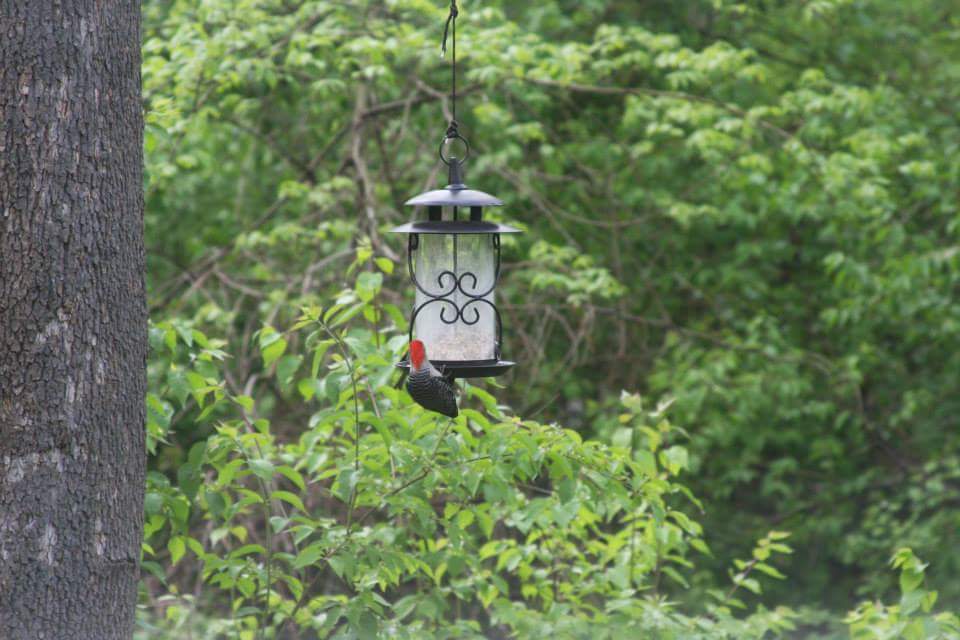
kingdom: Animalia
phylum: Chordata
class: Aves
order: Piciformes
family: Picidae
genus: Melanerpes
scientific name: Melanerpes carolinus
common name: Red-bellied woodpecker
